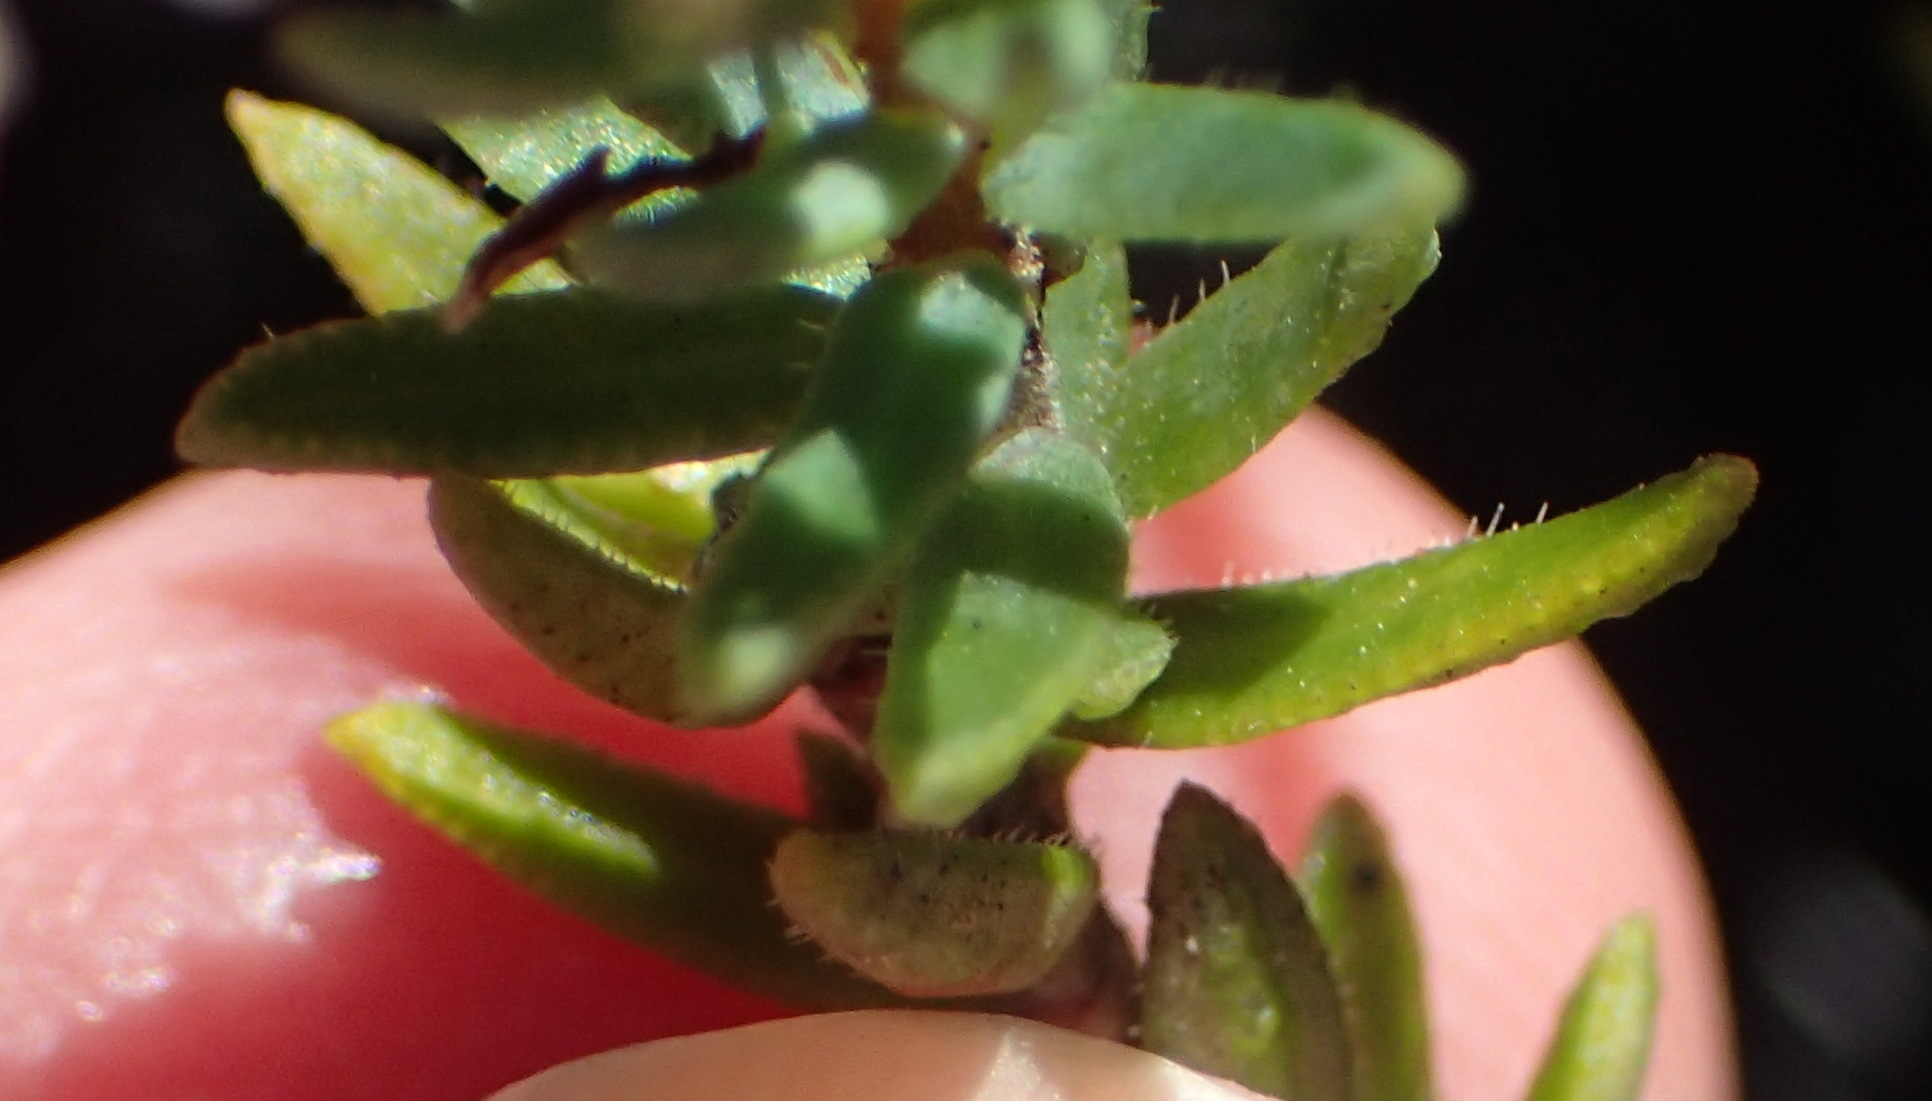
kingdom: Plantae
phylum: Tracheophyta
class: Magnoliopsida
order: Sapindales
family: Rutaceae
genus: Macrostylis
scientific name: Macrostylis villosa
